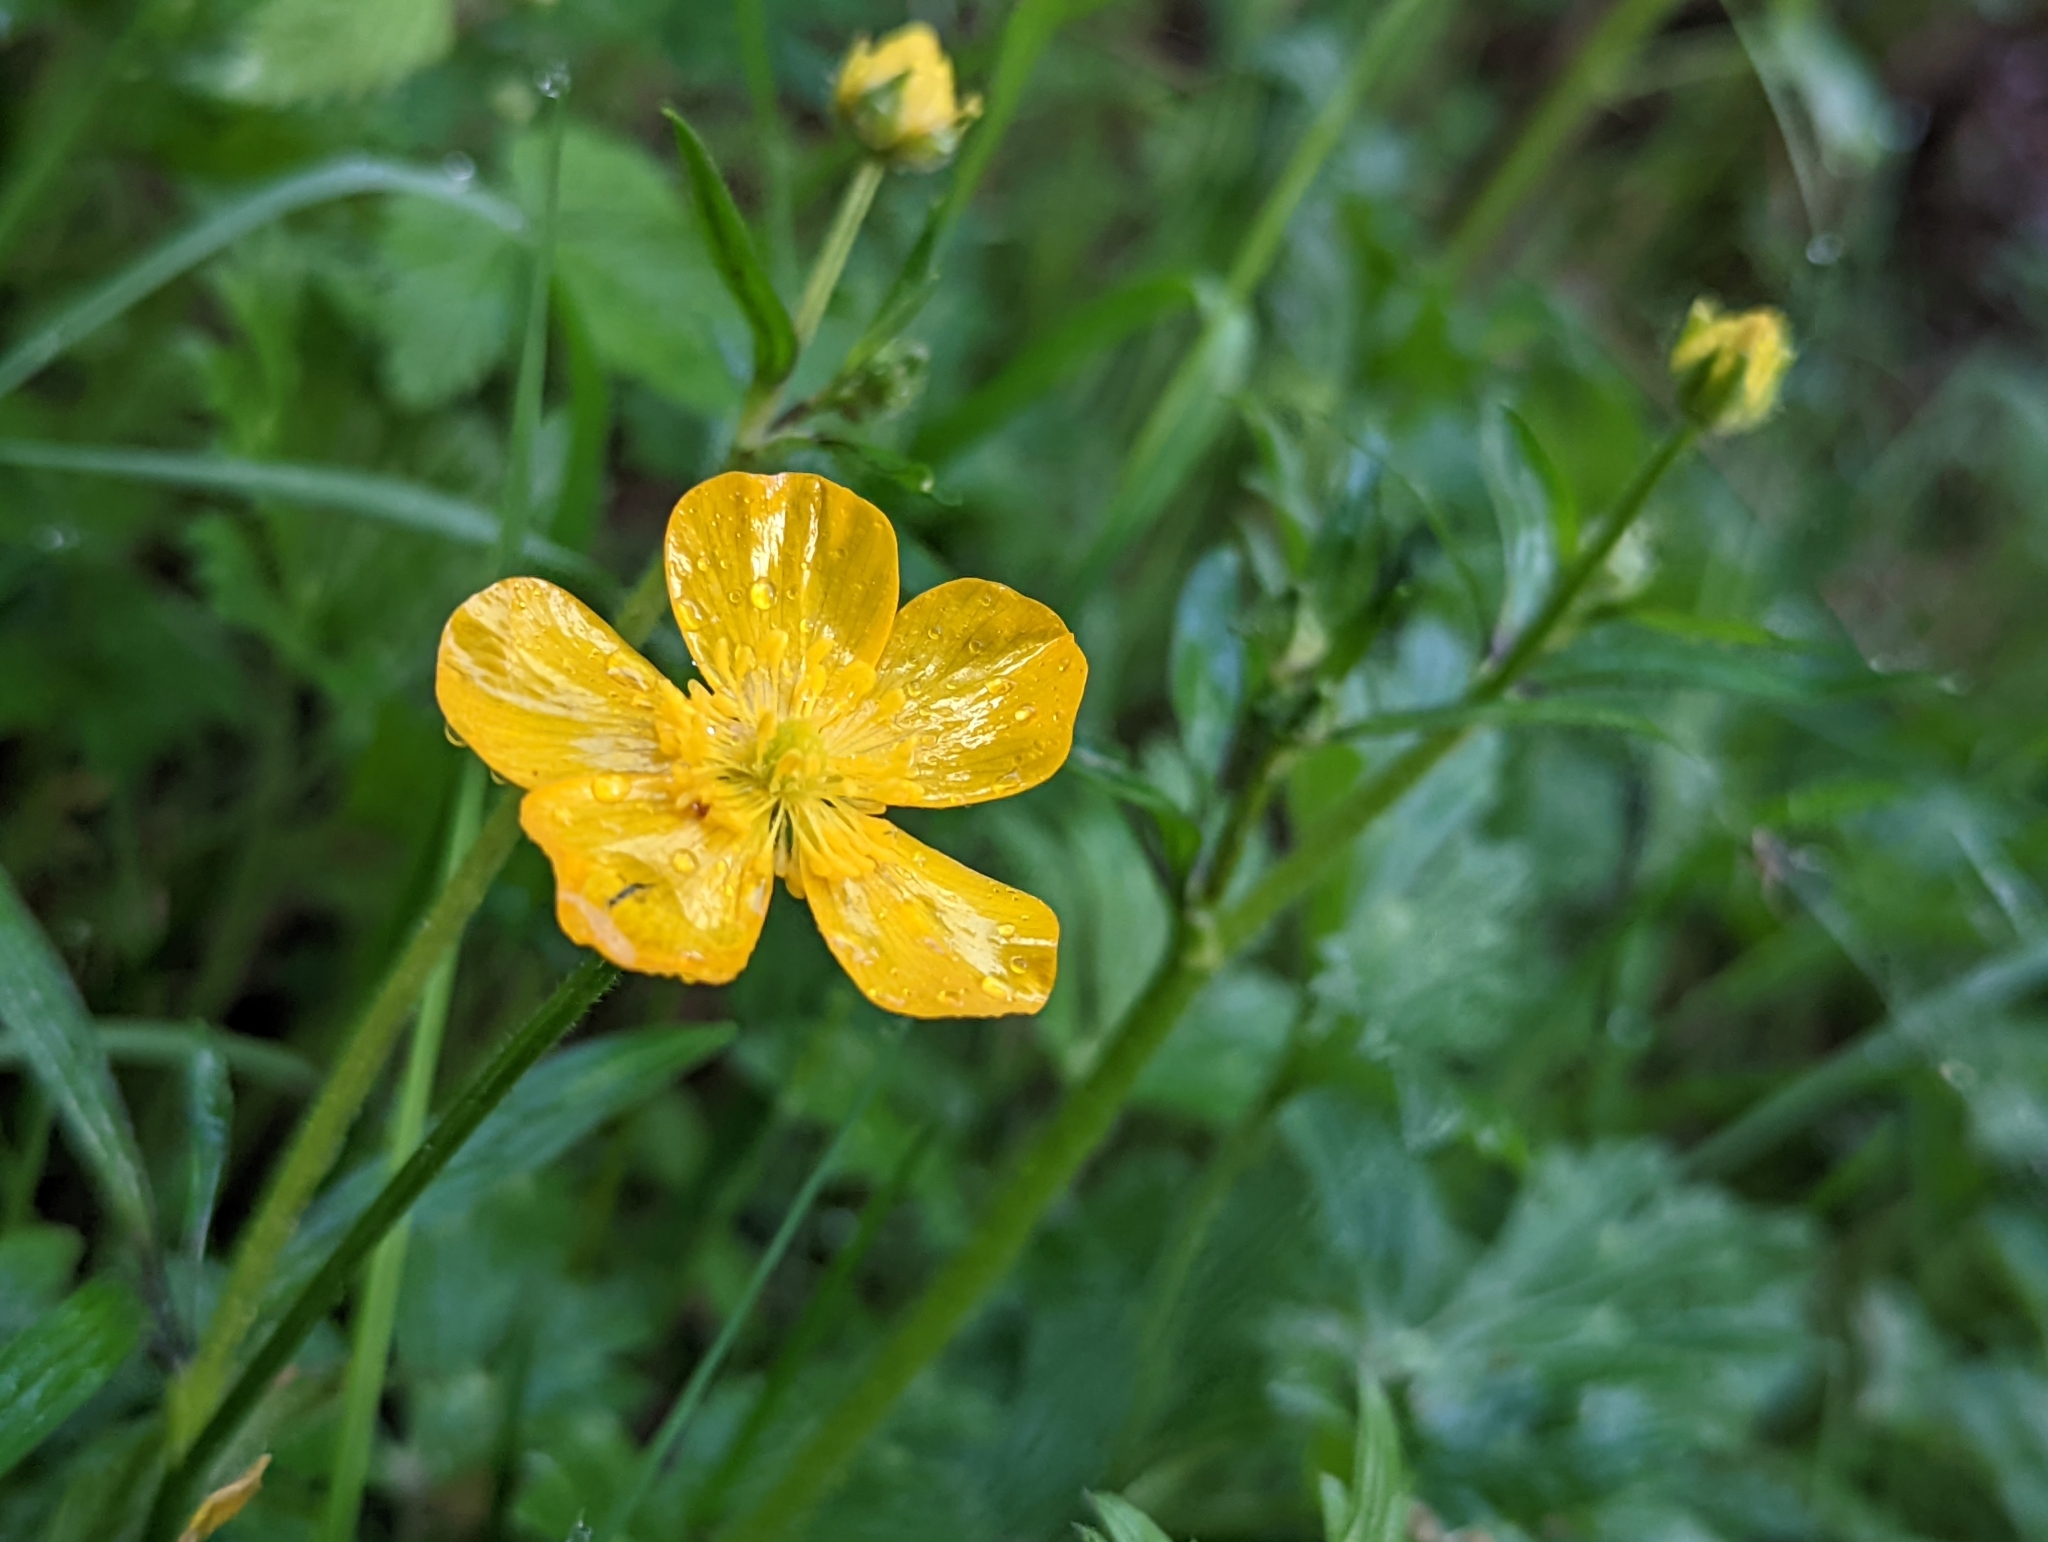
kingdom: Plantae
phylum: Tracheophyta
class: Magnoliopsida
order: Ranunculales
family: Ranunculaceae
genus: Ranunculus
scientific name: Ranunculus repens
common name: Creeping buttercup
